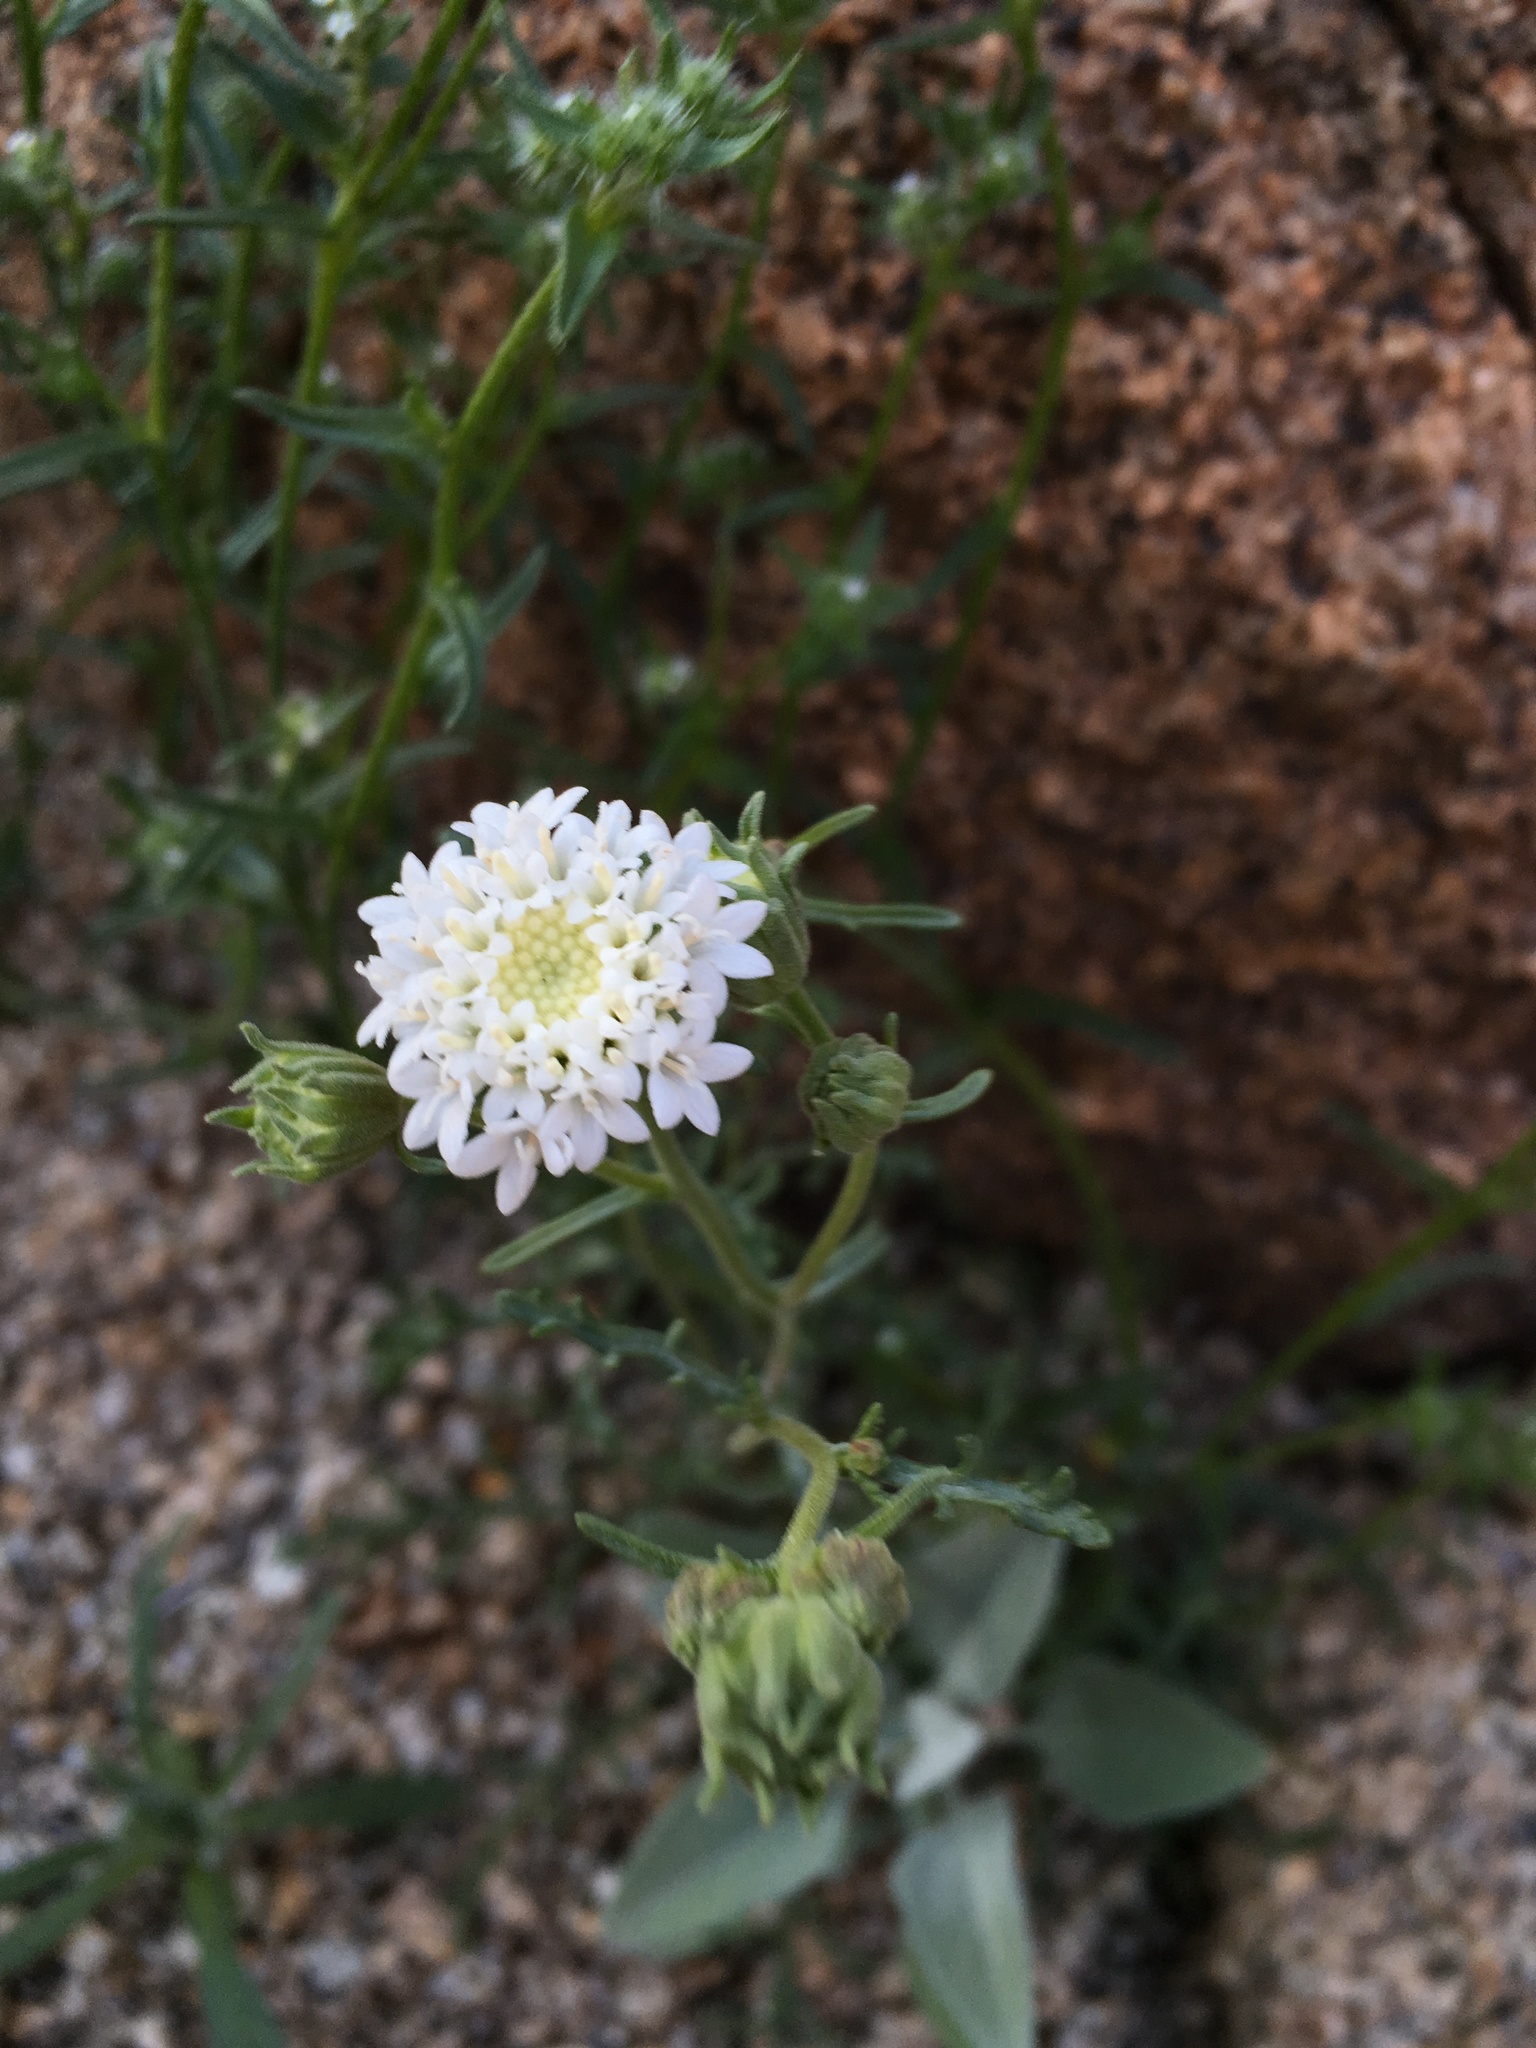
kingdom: Plantae
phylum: Tracheophyta
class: Magnoliopsida
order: Asterales
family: Asteraceae
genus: Chaenactis
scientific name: Chaenactis stevioides
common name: Desert pincushion
